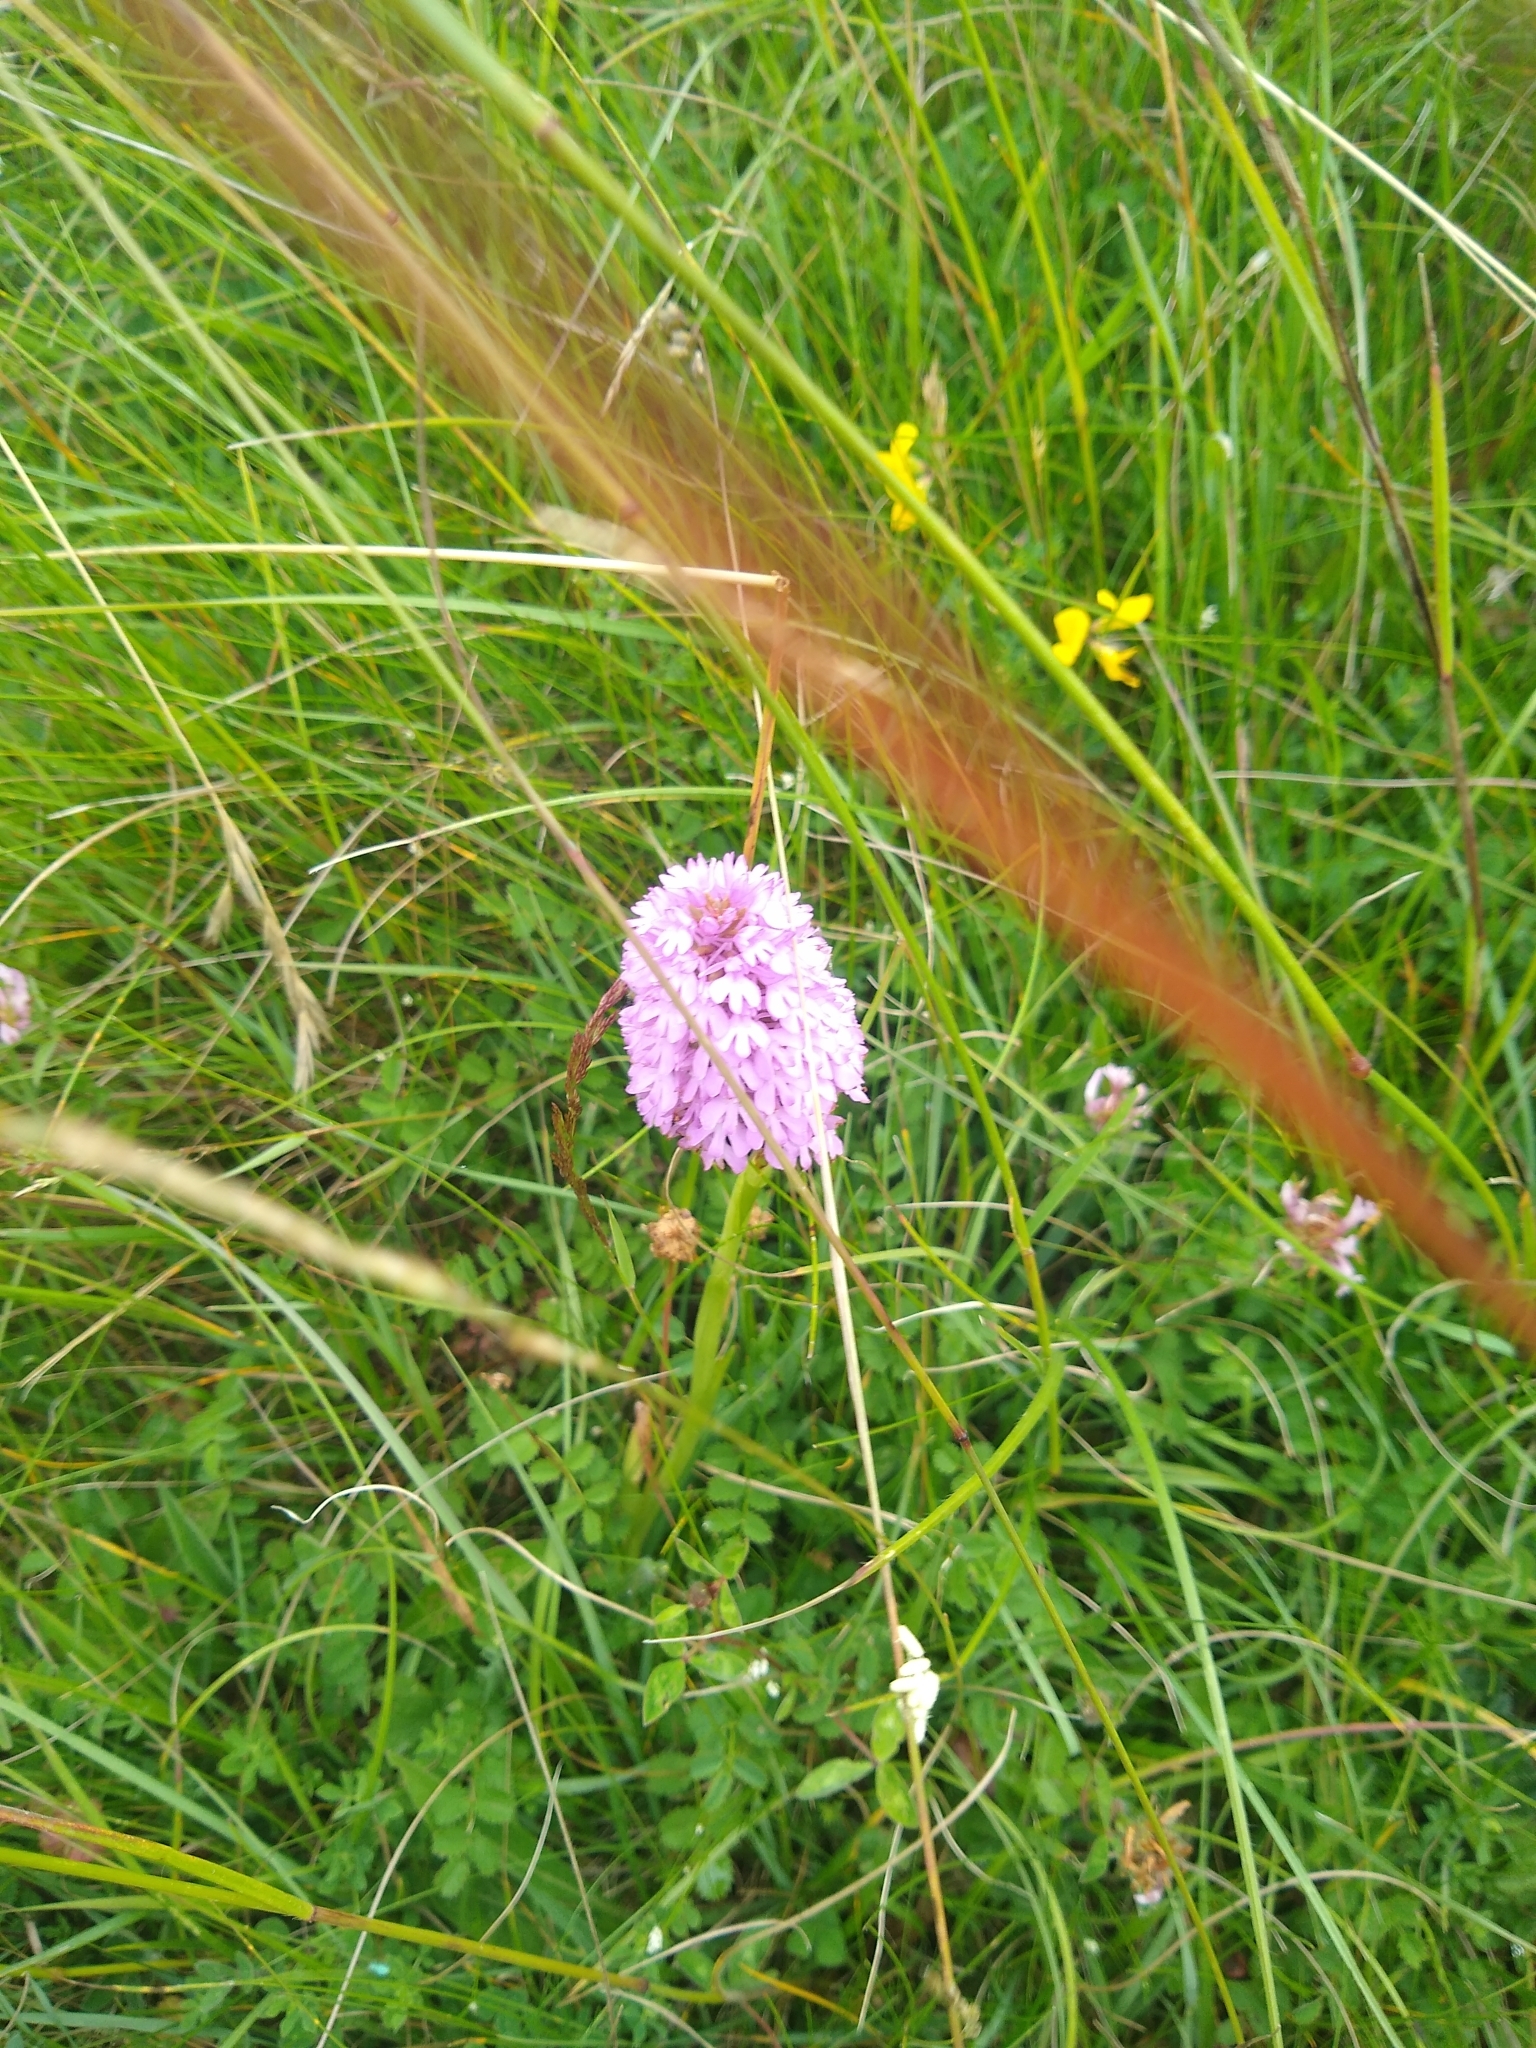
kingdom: Plantae
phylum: Tracheophyta
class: Liliopsida
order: Asparagales
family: Orchidaceae
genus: Anacamptis
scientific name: Anacamptis pyramidalis
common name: Pyramidal orchid
